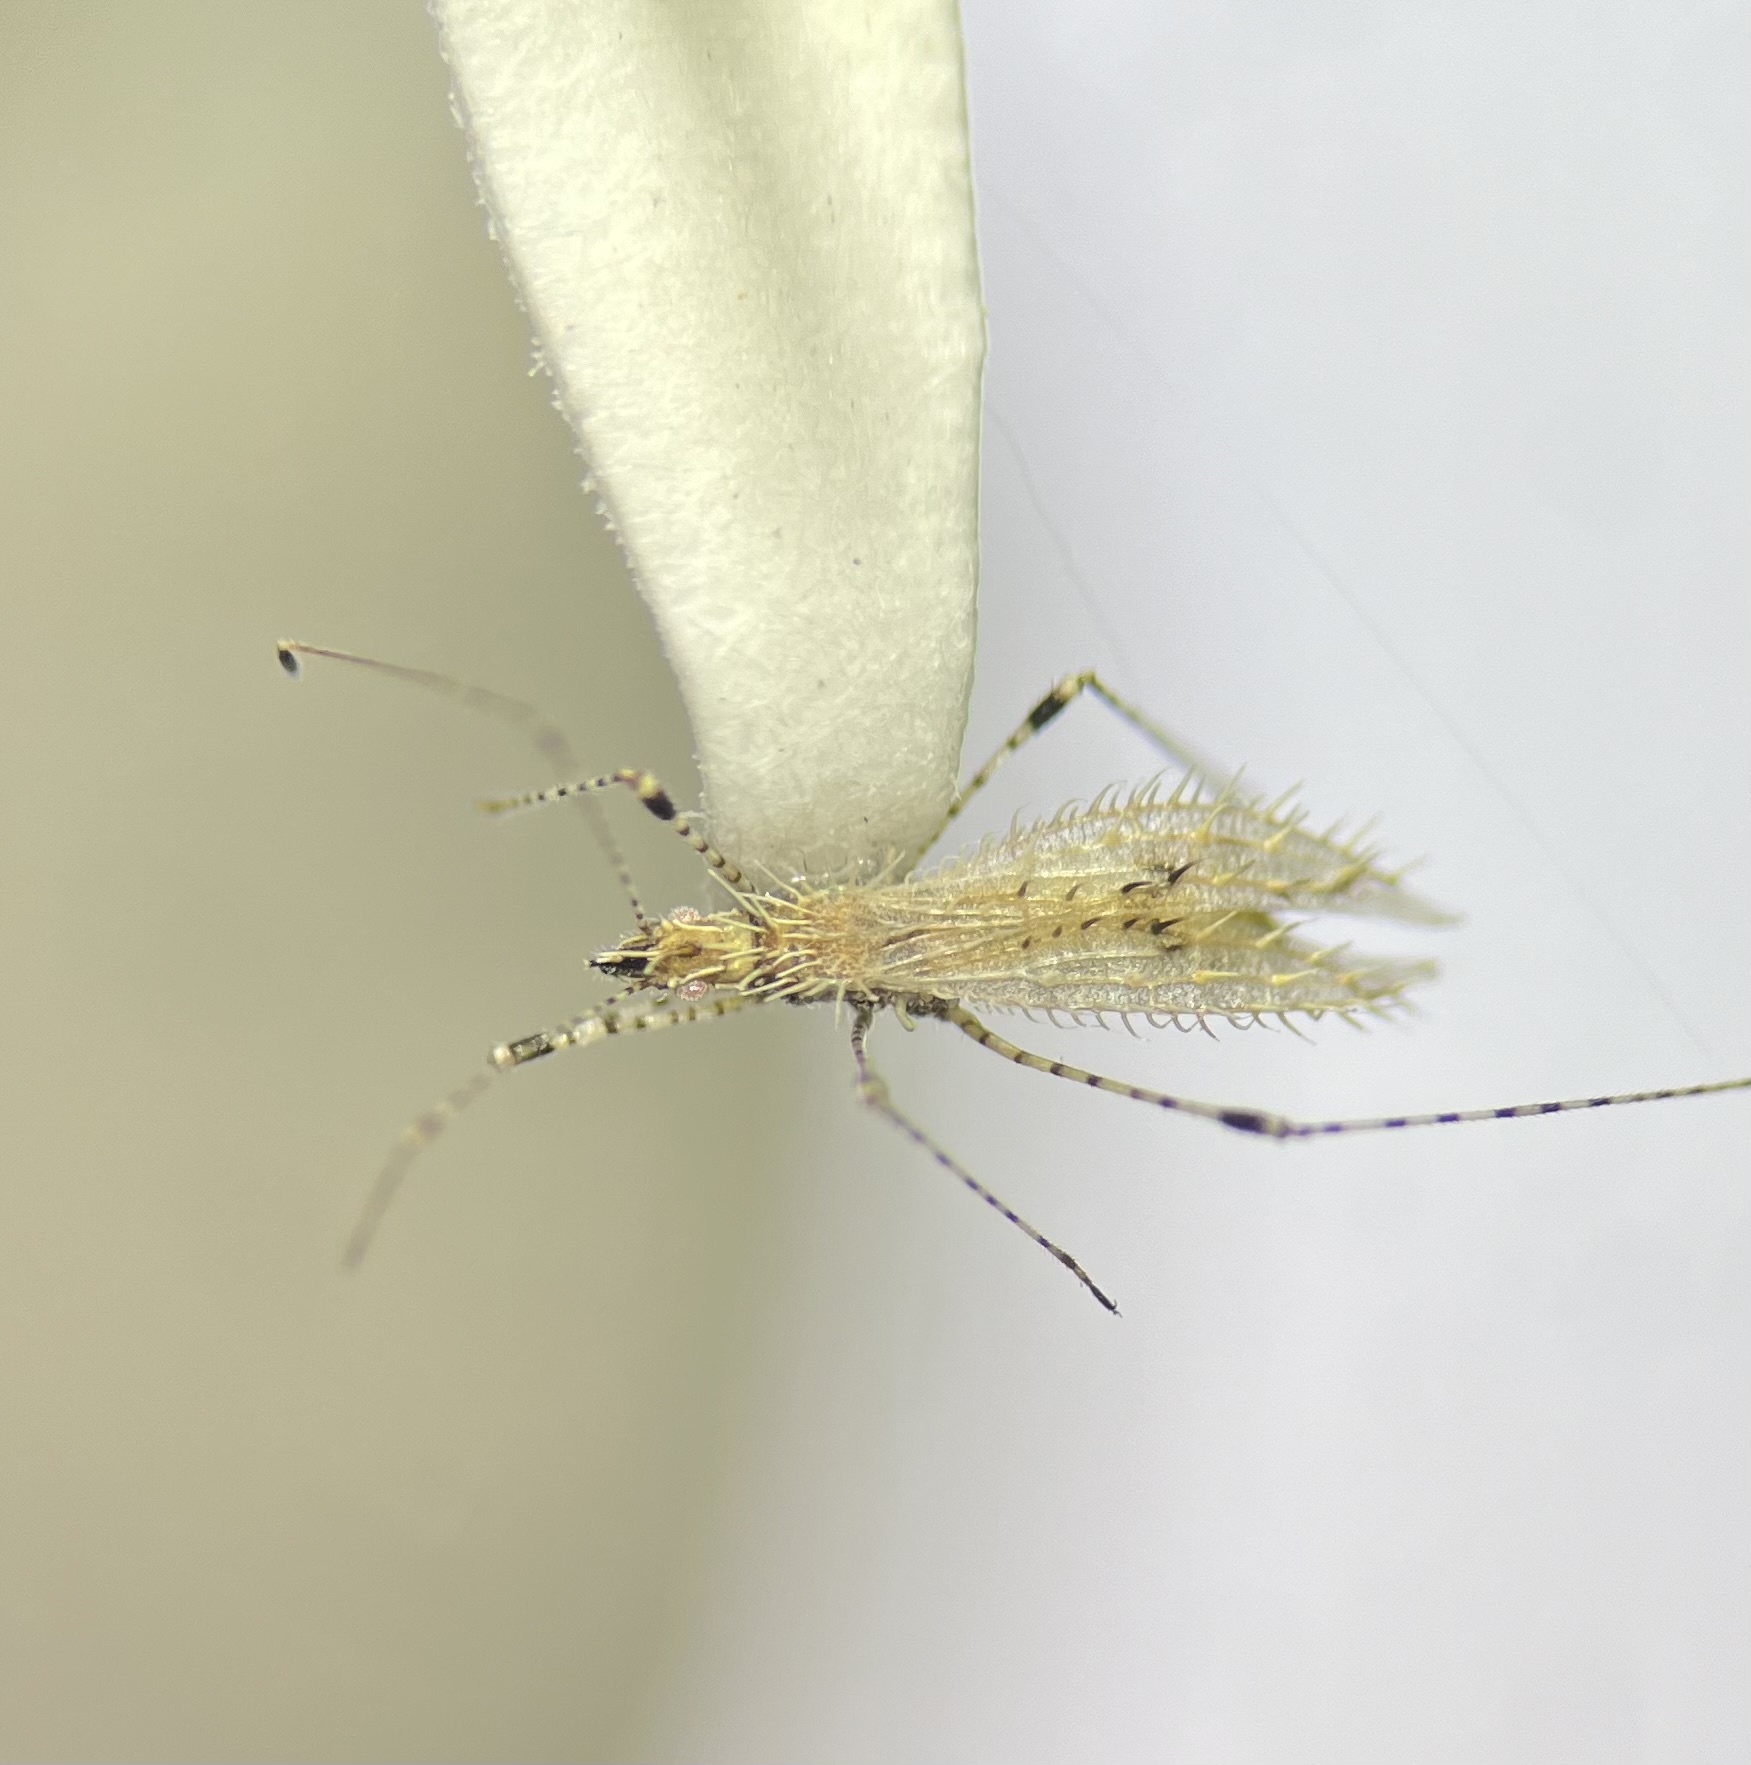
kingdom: Animalia
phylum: Arthropoda
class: Insecta
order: Hemiptera
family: Berytidae
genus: Hoplinus
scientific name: Hoplinus echinatus
